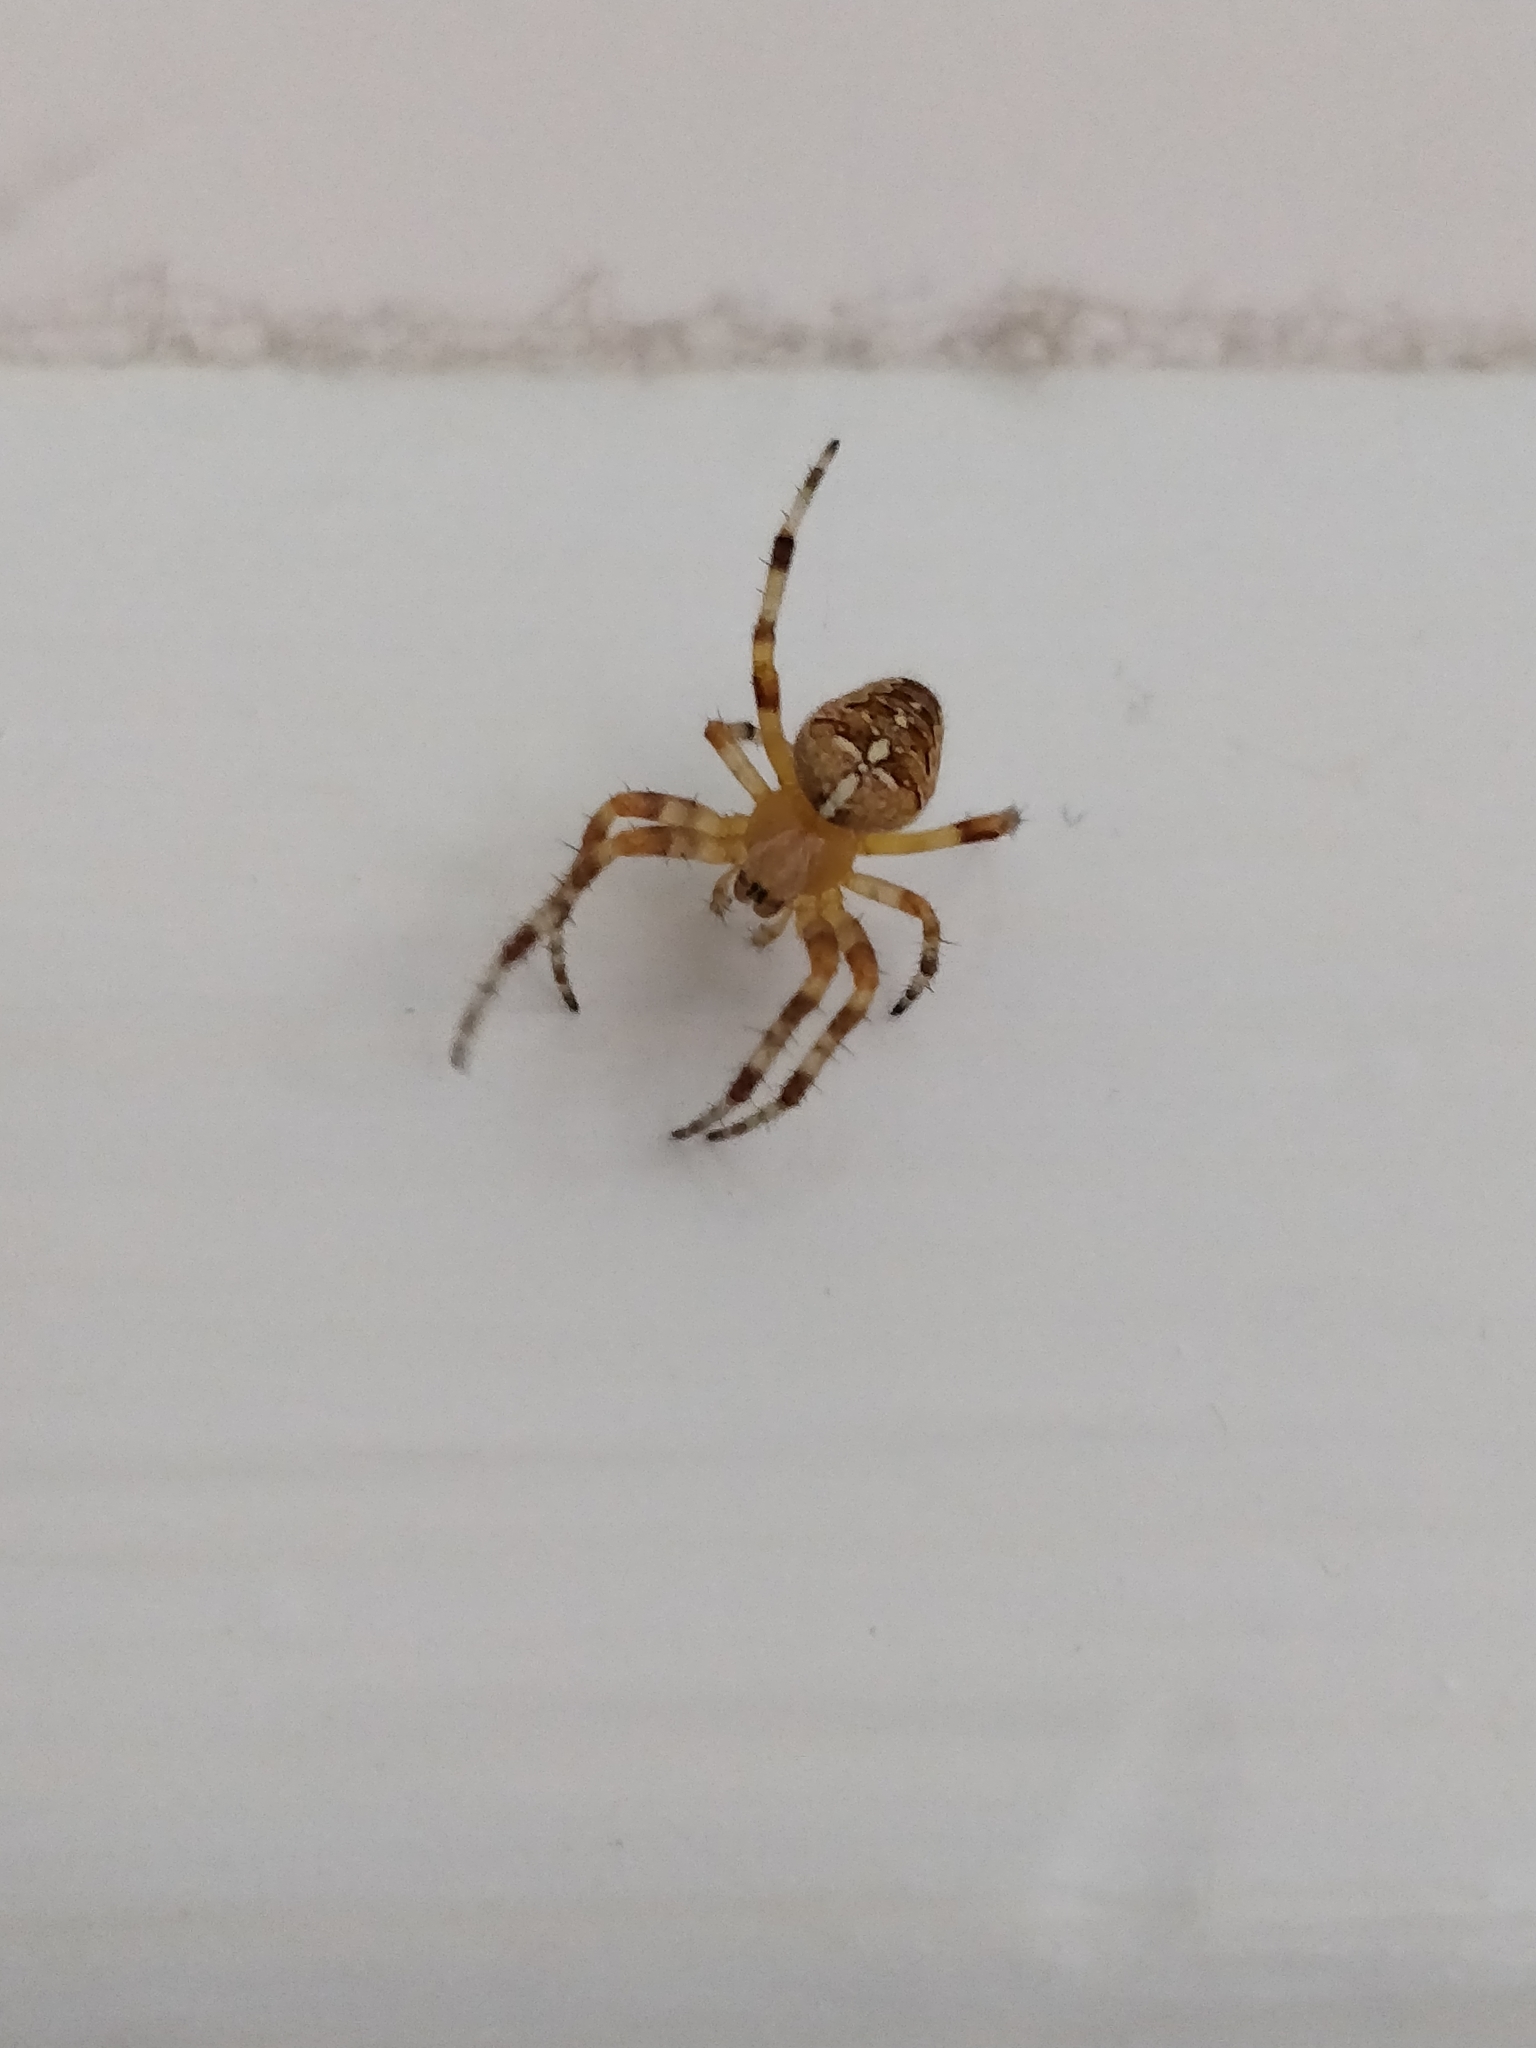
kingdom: Animalia
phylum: Arthropoda
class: Arachnida
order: Araneae
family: Araneidae
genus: Araneus
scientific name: Araneus diadematus
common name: Cross orbweaver
